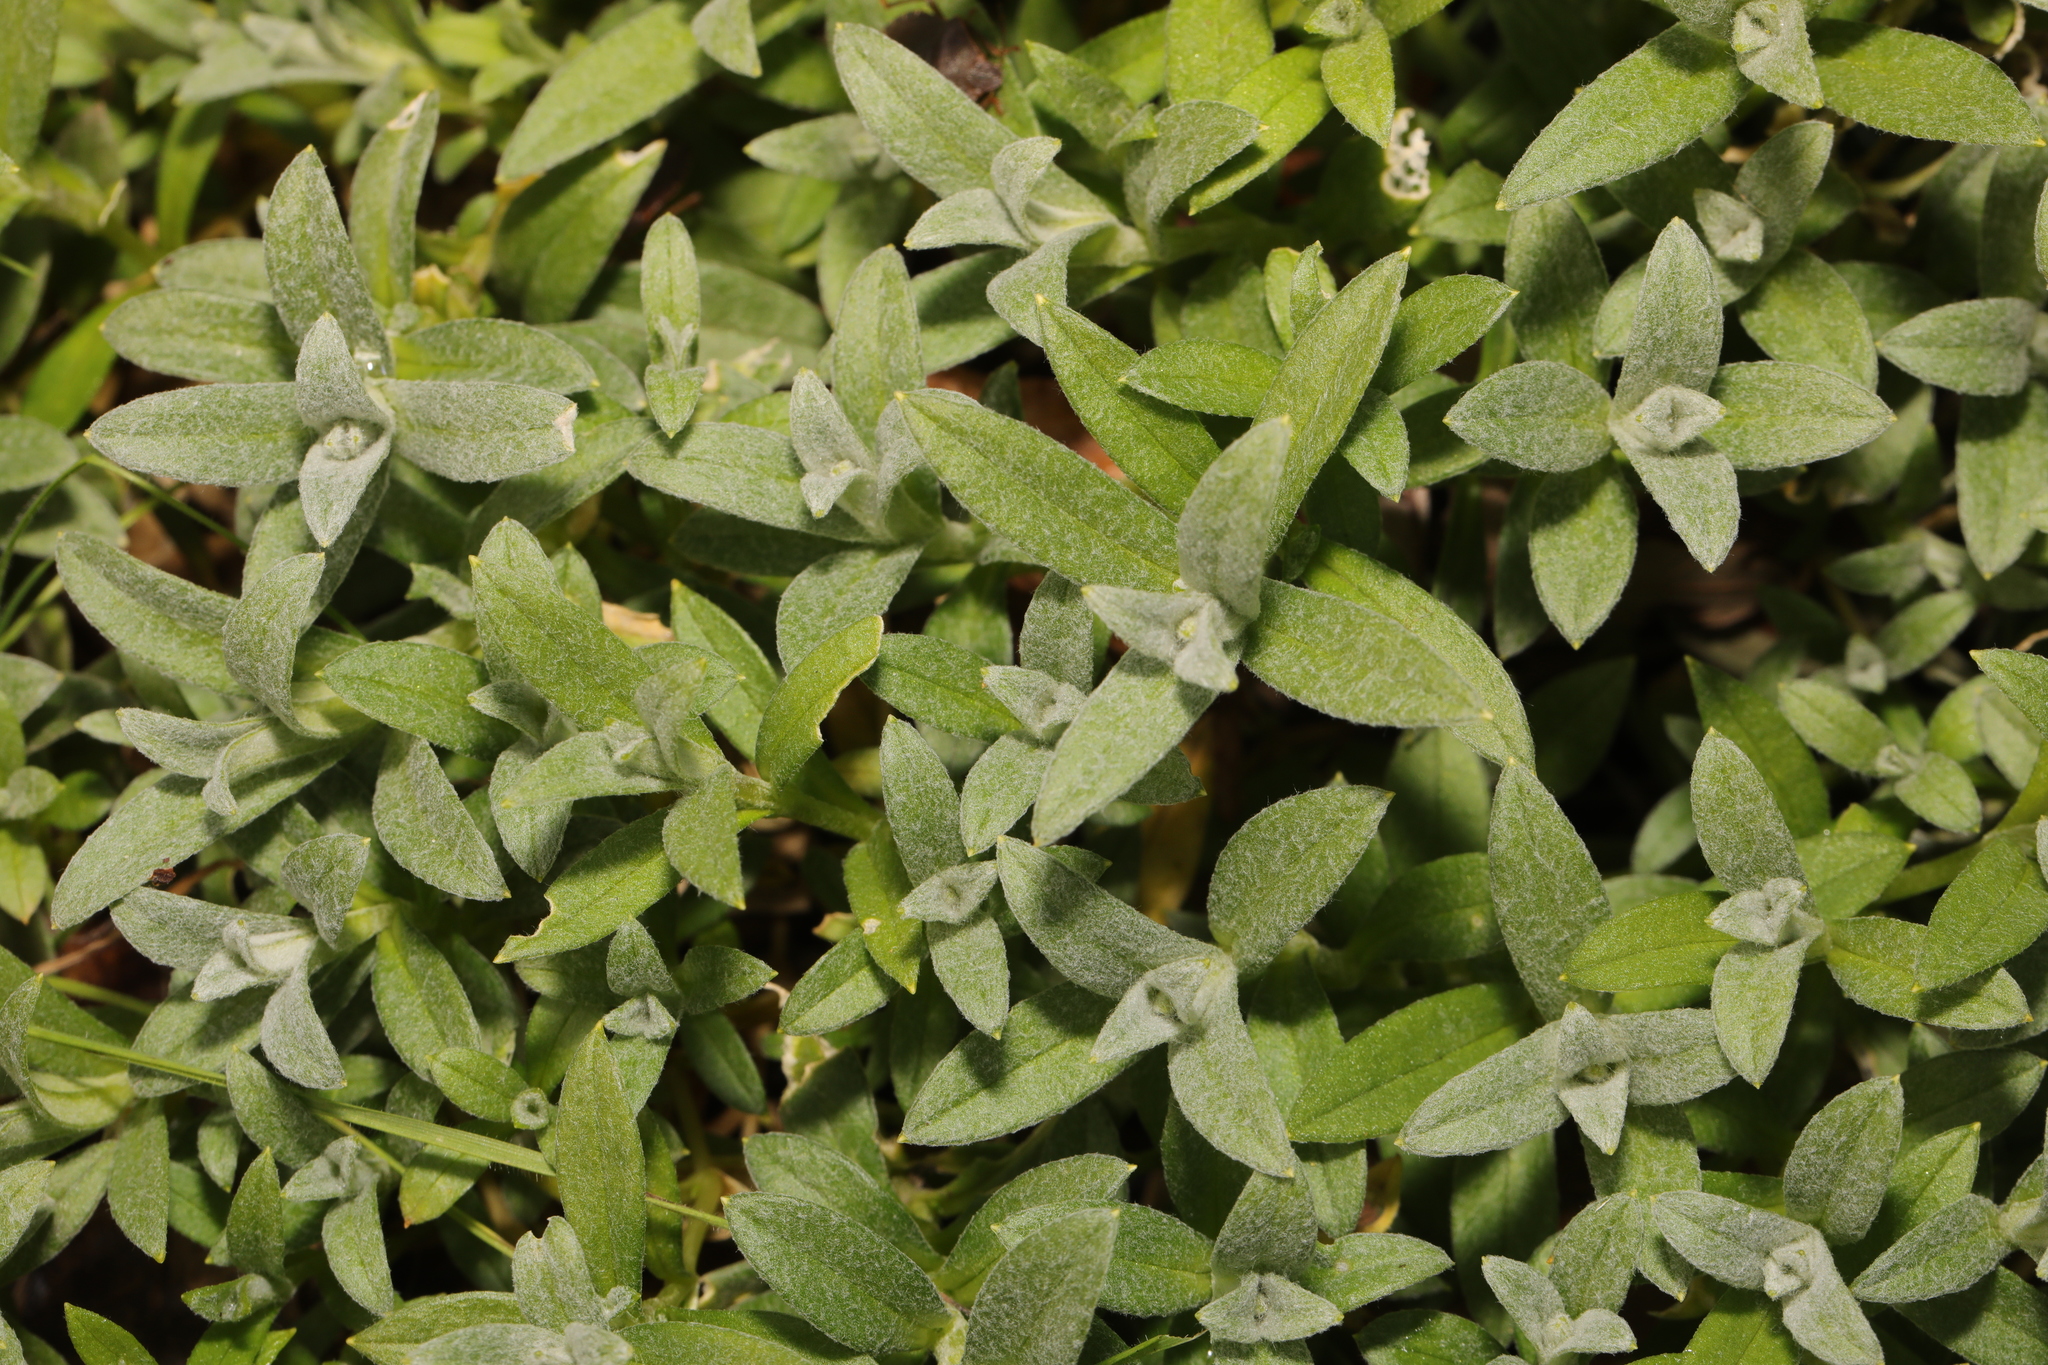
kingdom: Plantae
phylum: Tracheophyta
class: Magnoliopsida
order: Caryophyllales
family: Caryophyllaceae
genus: Cerastium
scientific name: Cerastium tomentosum
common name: Snow-in-summer
